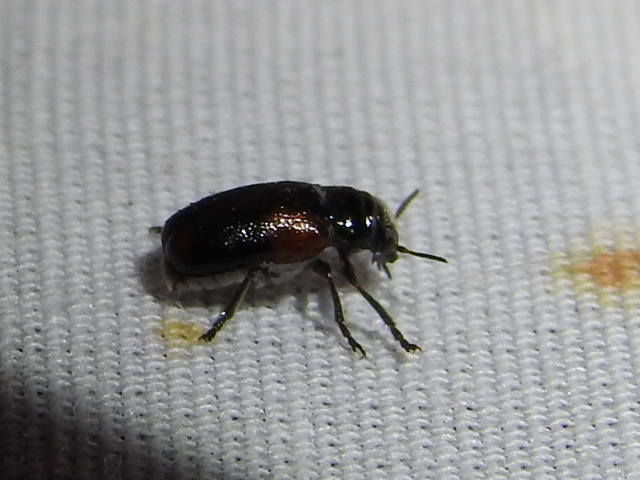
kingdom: Animalia
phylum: Arthropoda
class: Insecta
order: Coleoptera
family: Chrysomelidae
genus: Smaragdina
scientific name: Smaragdina militaris
